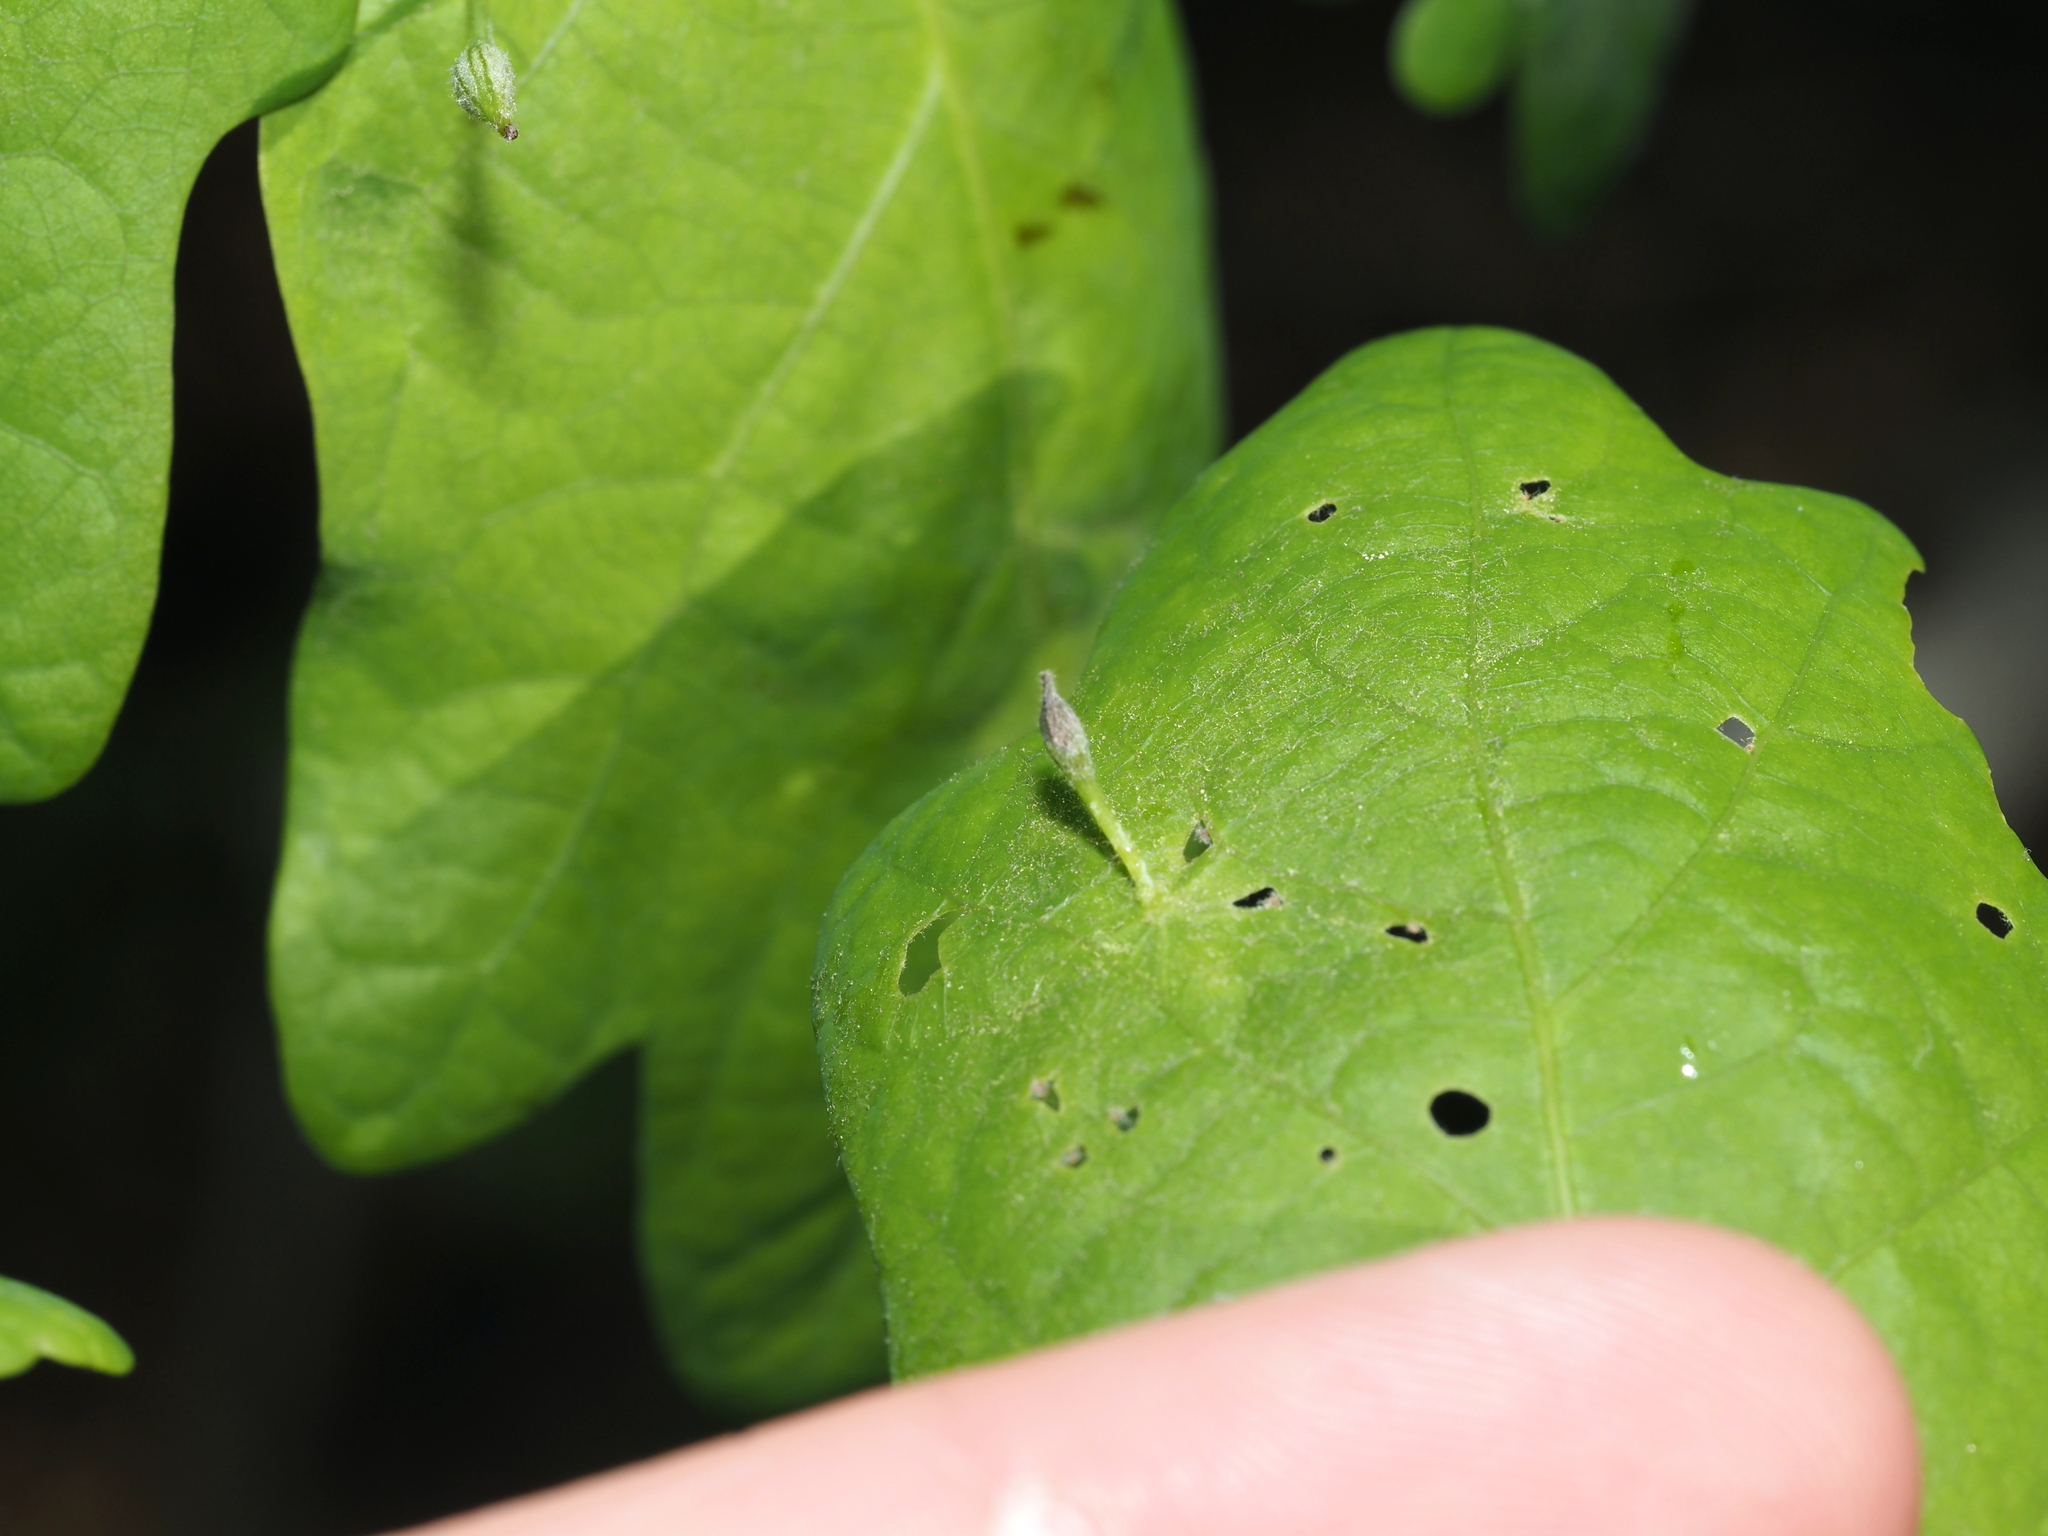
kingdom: Animalia
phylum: Arthropoda
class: Insecta
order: Hymenoptera
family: Cynipidae
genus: Andricus
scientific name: Andricus
